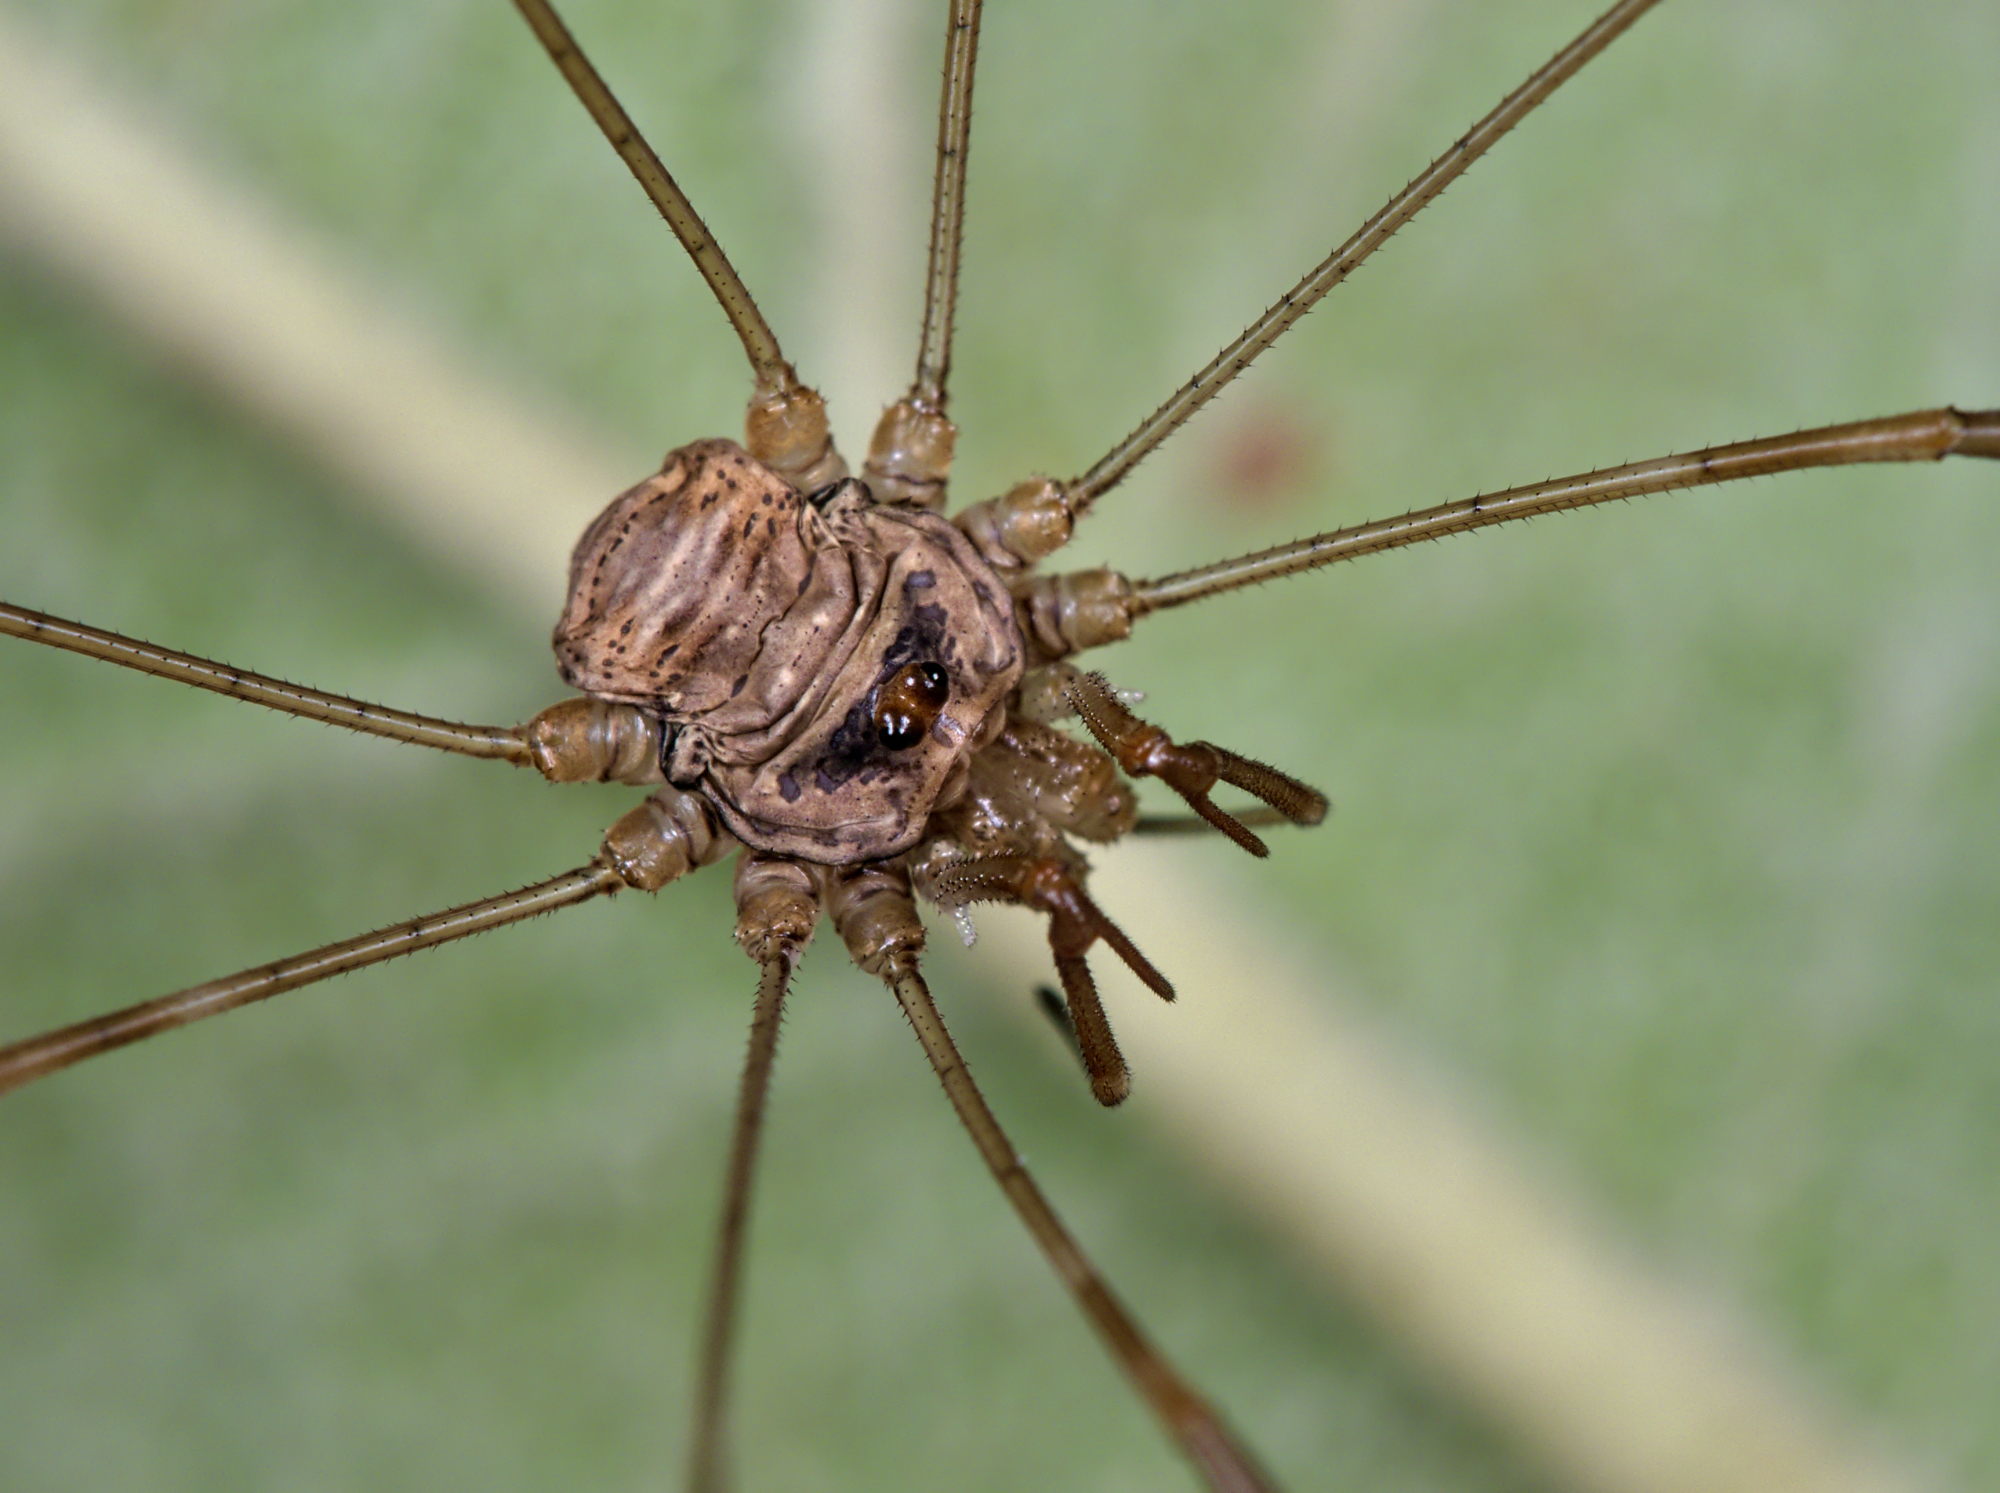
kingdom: Animalia
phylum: Arthropoda
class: Arachnida
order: Opiliones
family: Phalangiidae
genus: Dicranopalpus
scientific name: Dicranopalpus ramosus
